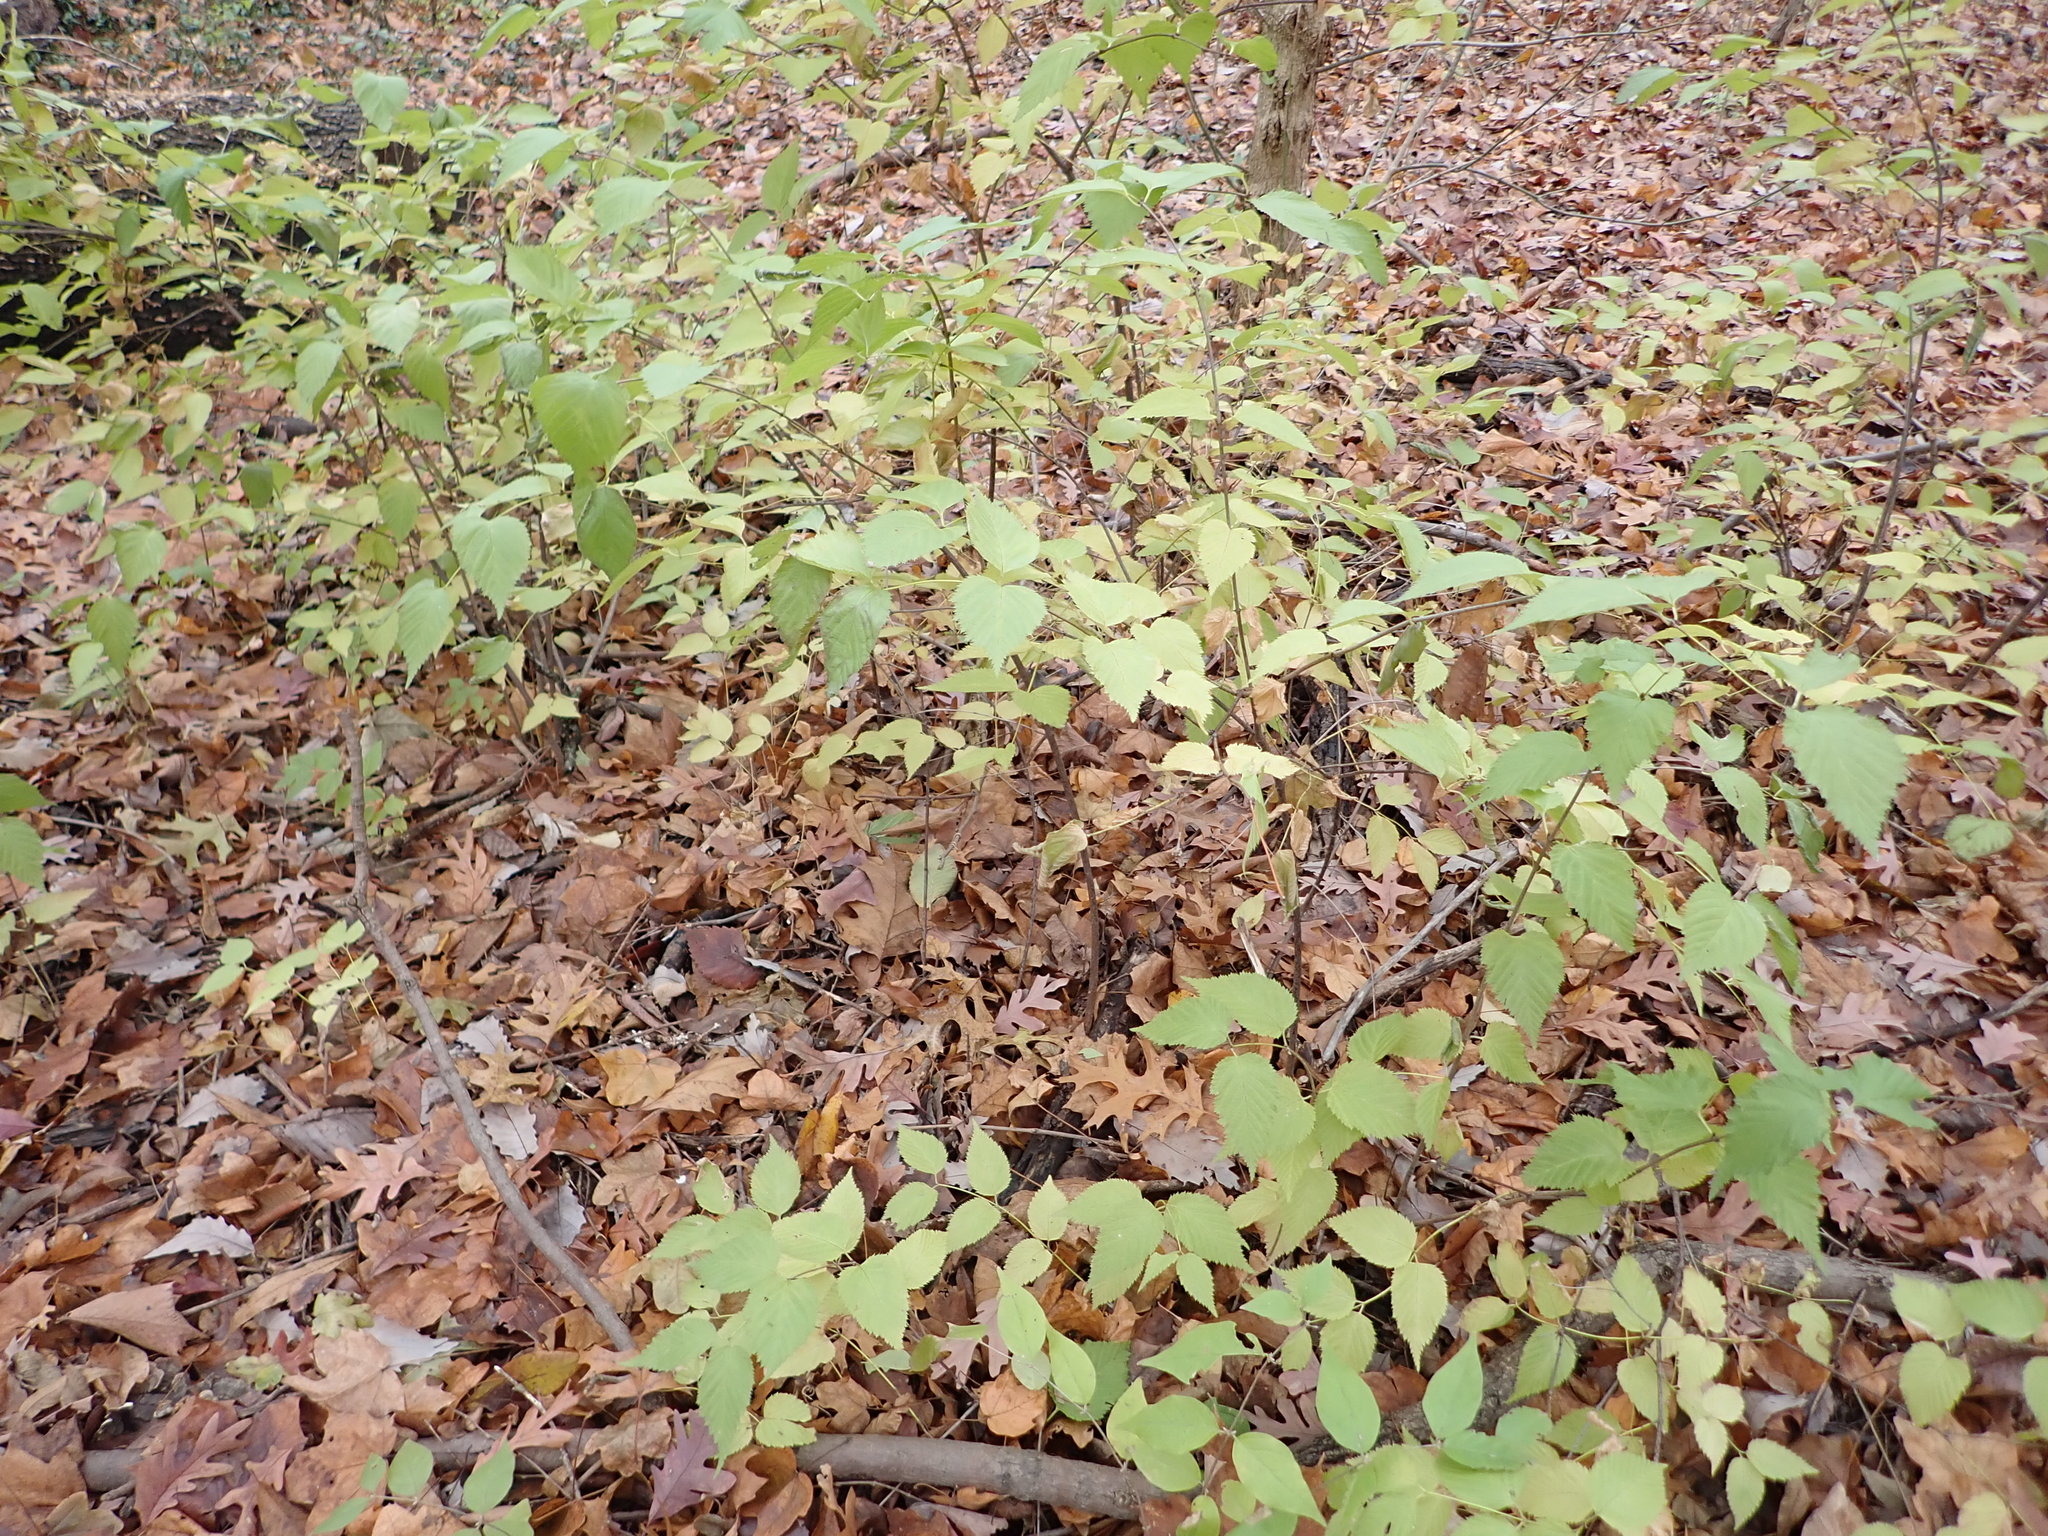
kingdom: Plantae
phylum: Tracheophyta
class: Magnoliopsida
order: Rosales
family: Rosaceae
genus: Rhodotypos
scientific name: Rhodotypos scandens
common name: Jetbead
